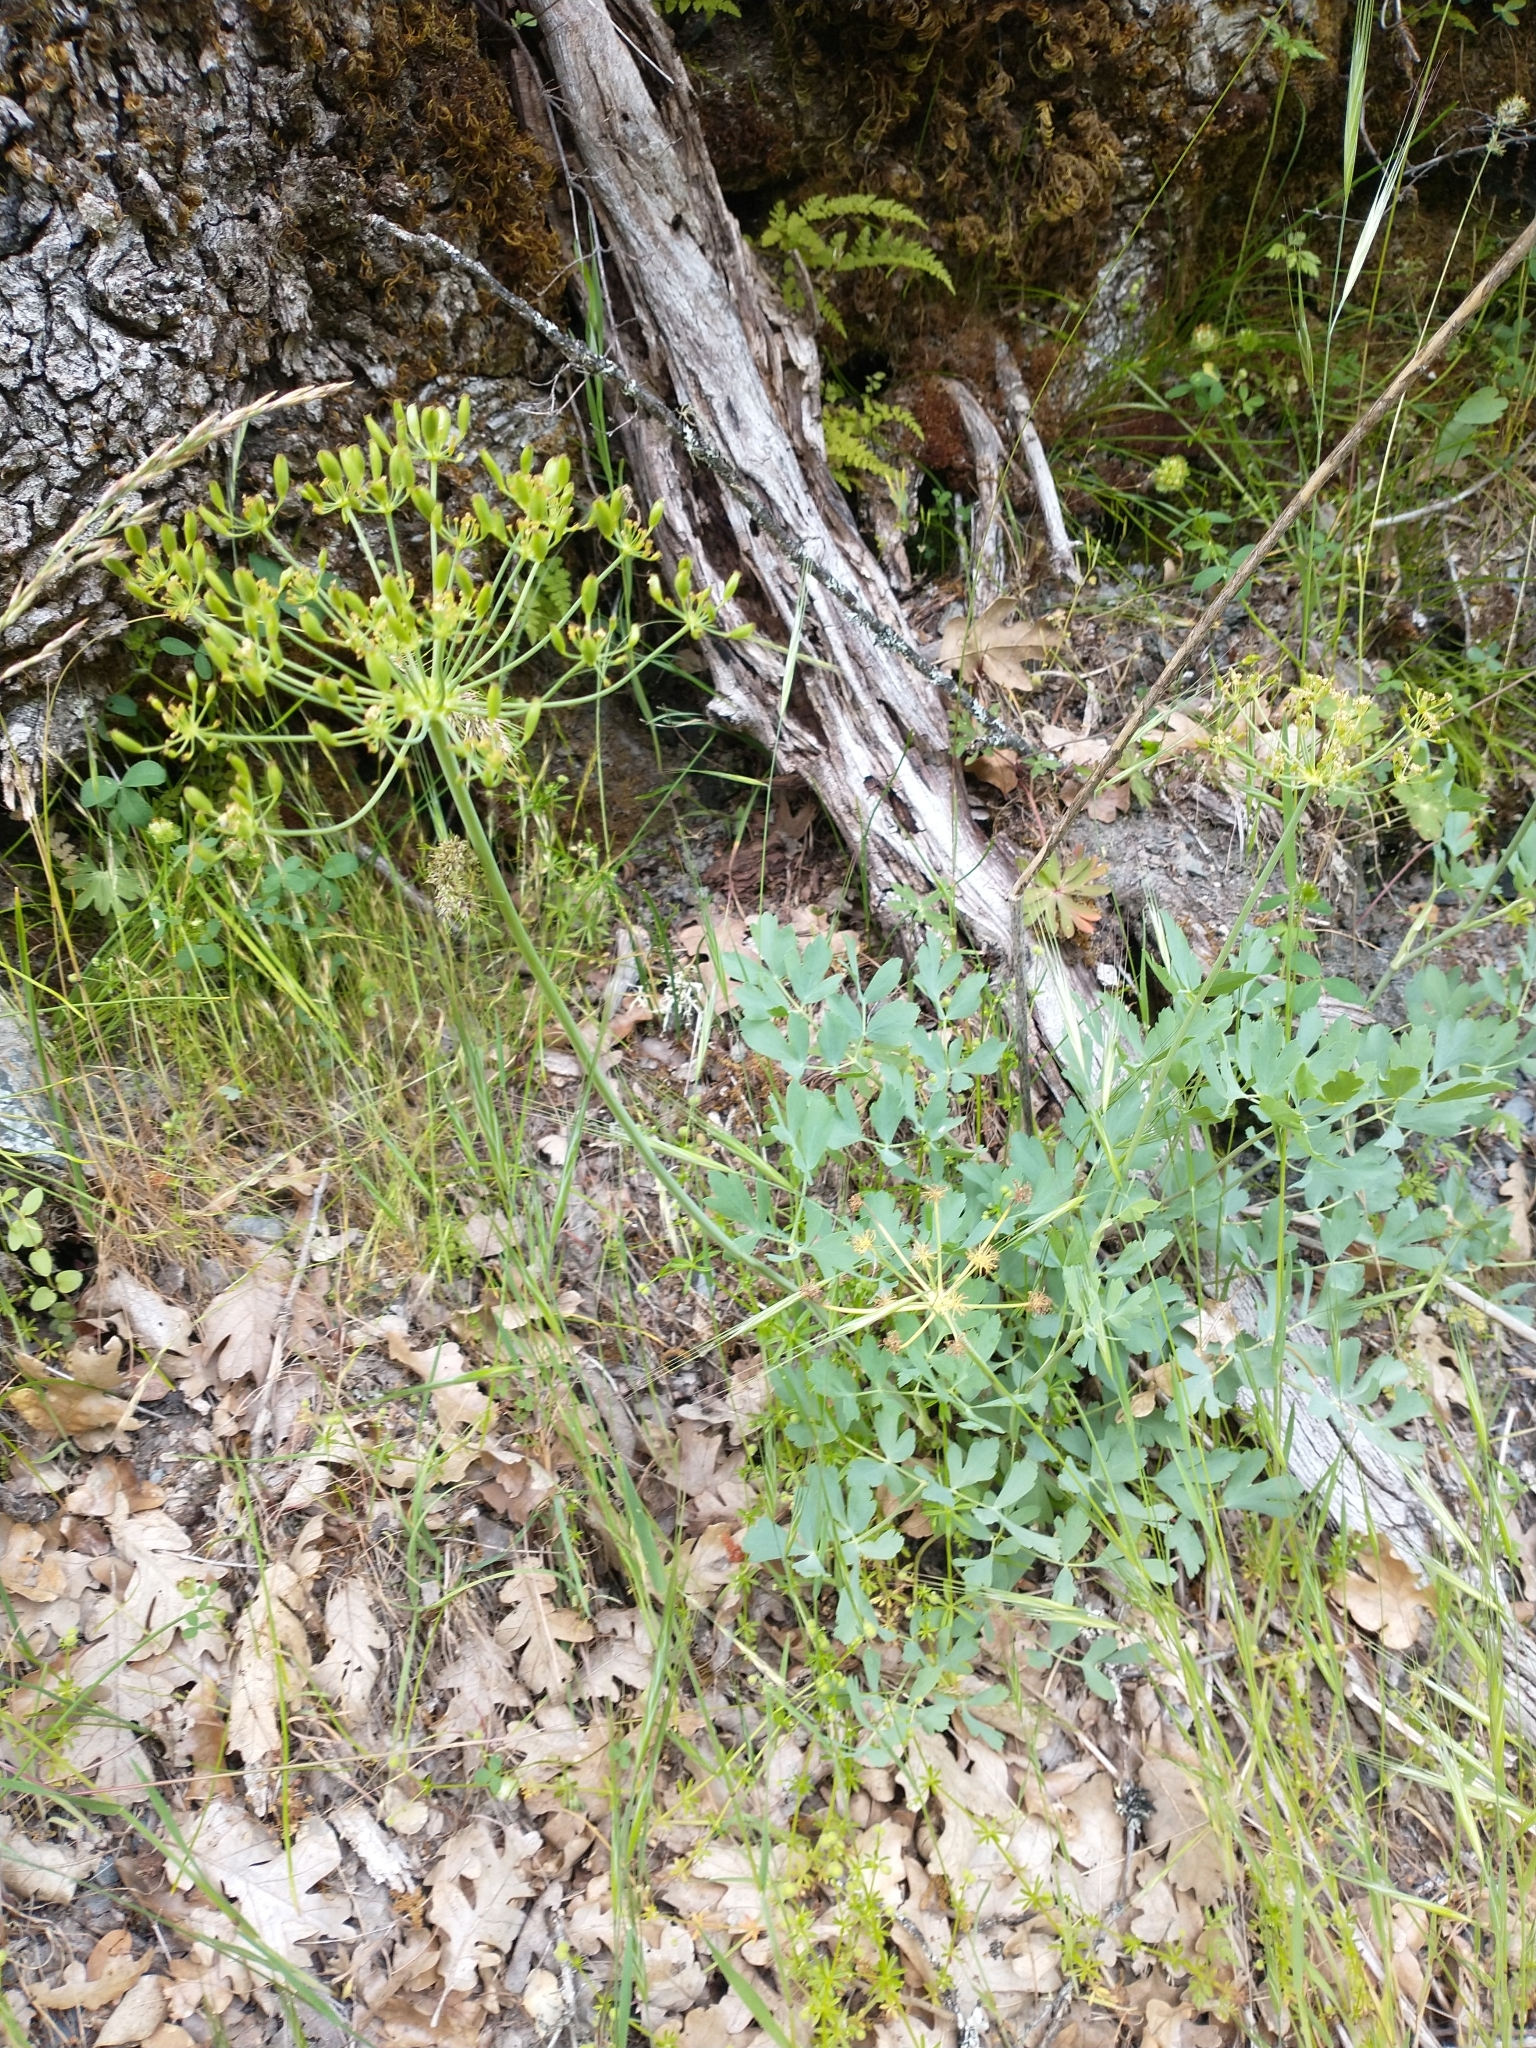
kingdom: Plantae
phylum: Tracheophyta
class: Magnoliopsida
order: Apiales
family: Apiaceae
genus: Lomatium
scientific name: Lomatium californicum
